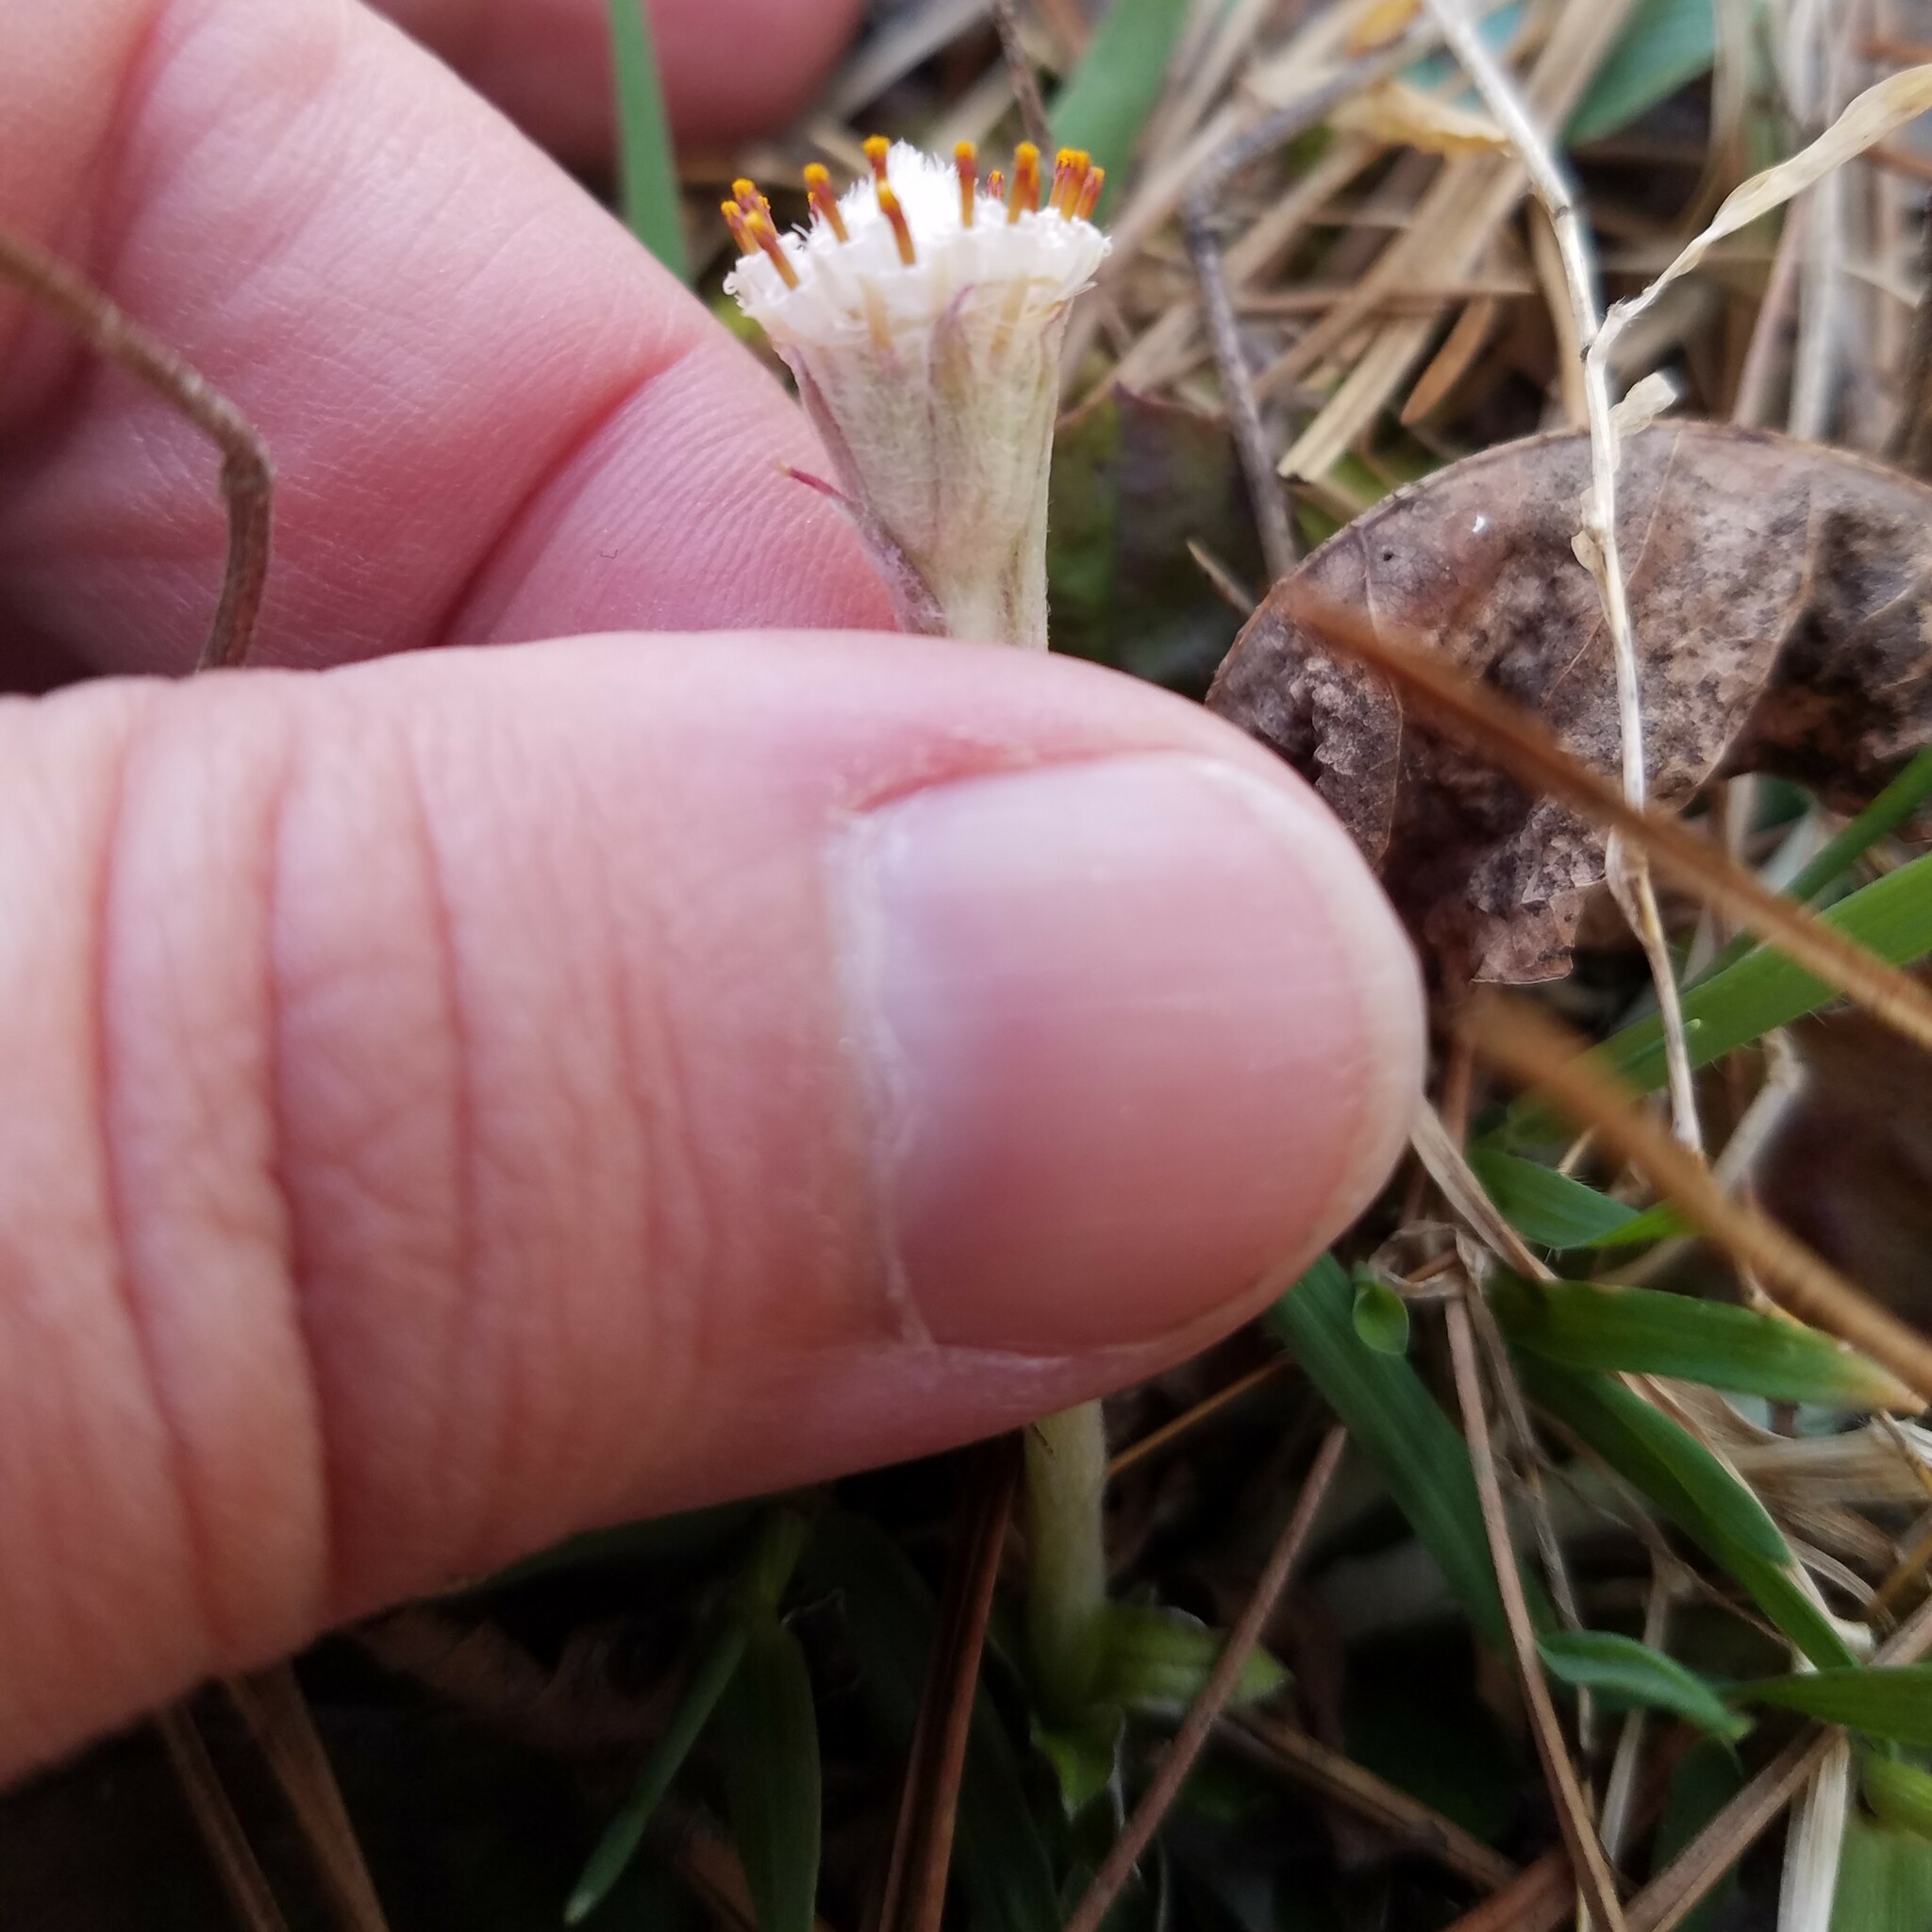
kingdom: Plantae
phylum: Tracheophyta
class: Magnoliopsida
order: Asterales
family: Asteraceae
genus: Antennaria
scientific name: Antennaria solitaria
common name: Single-head pussytoes
